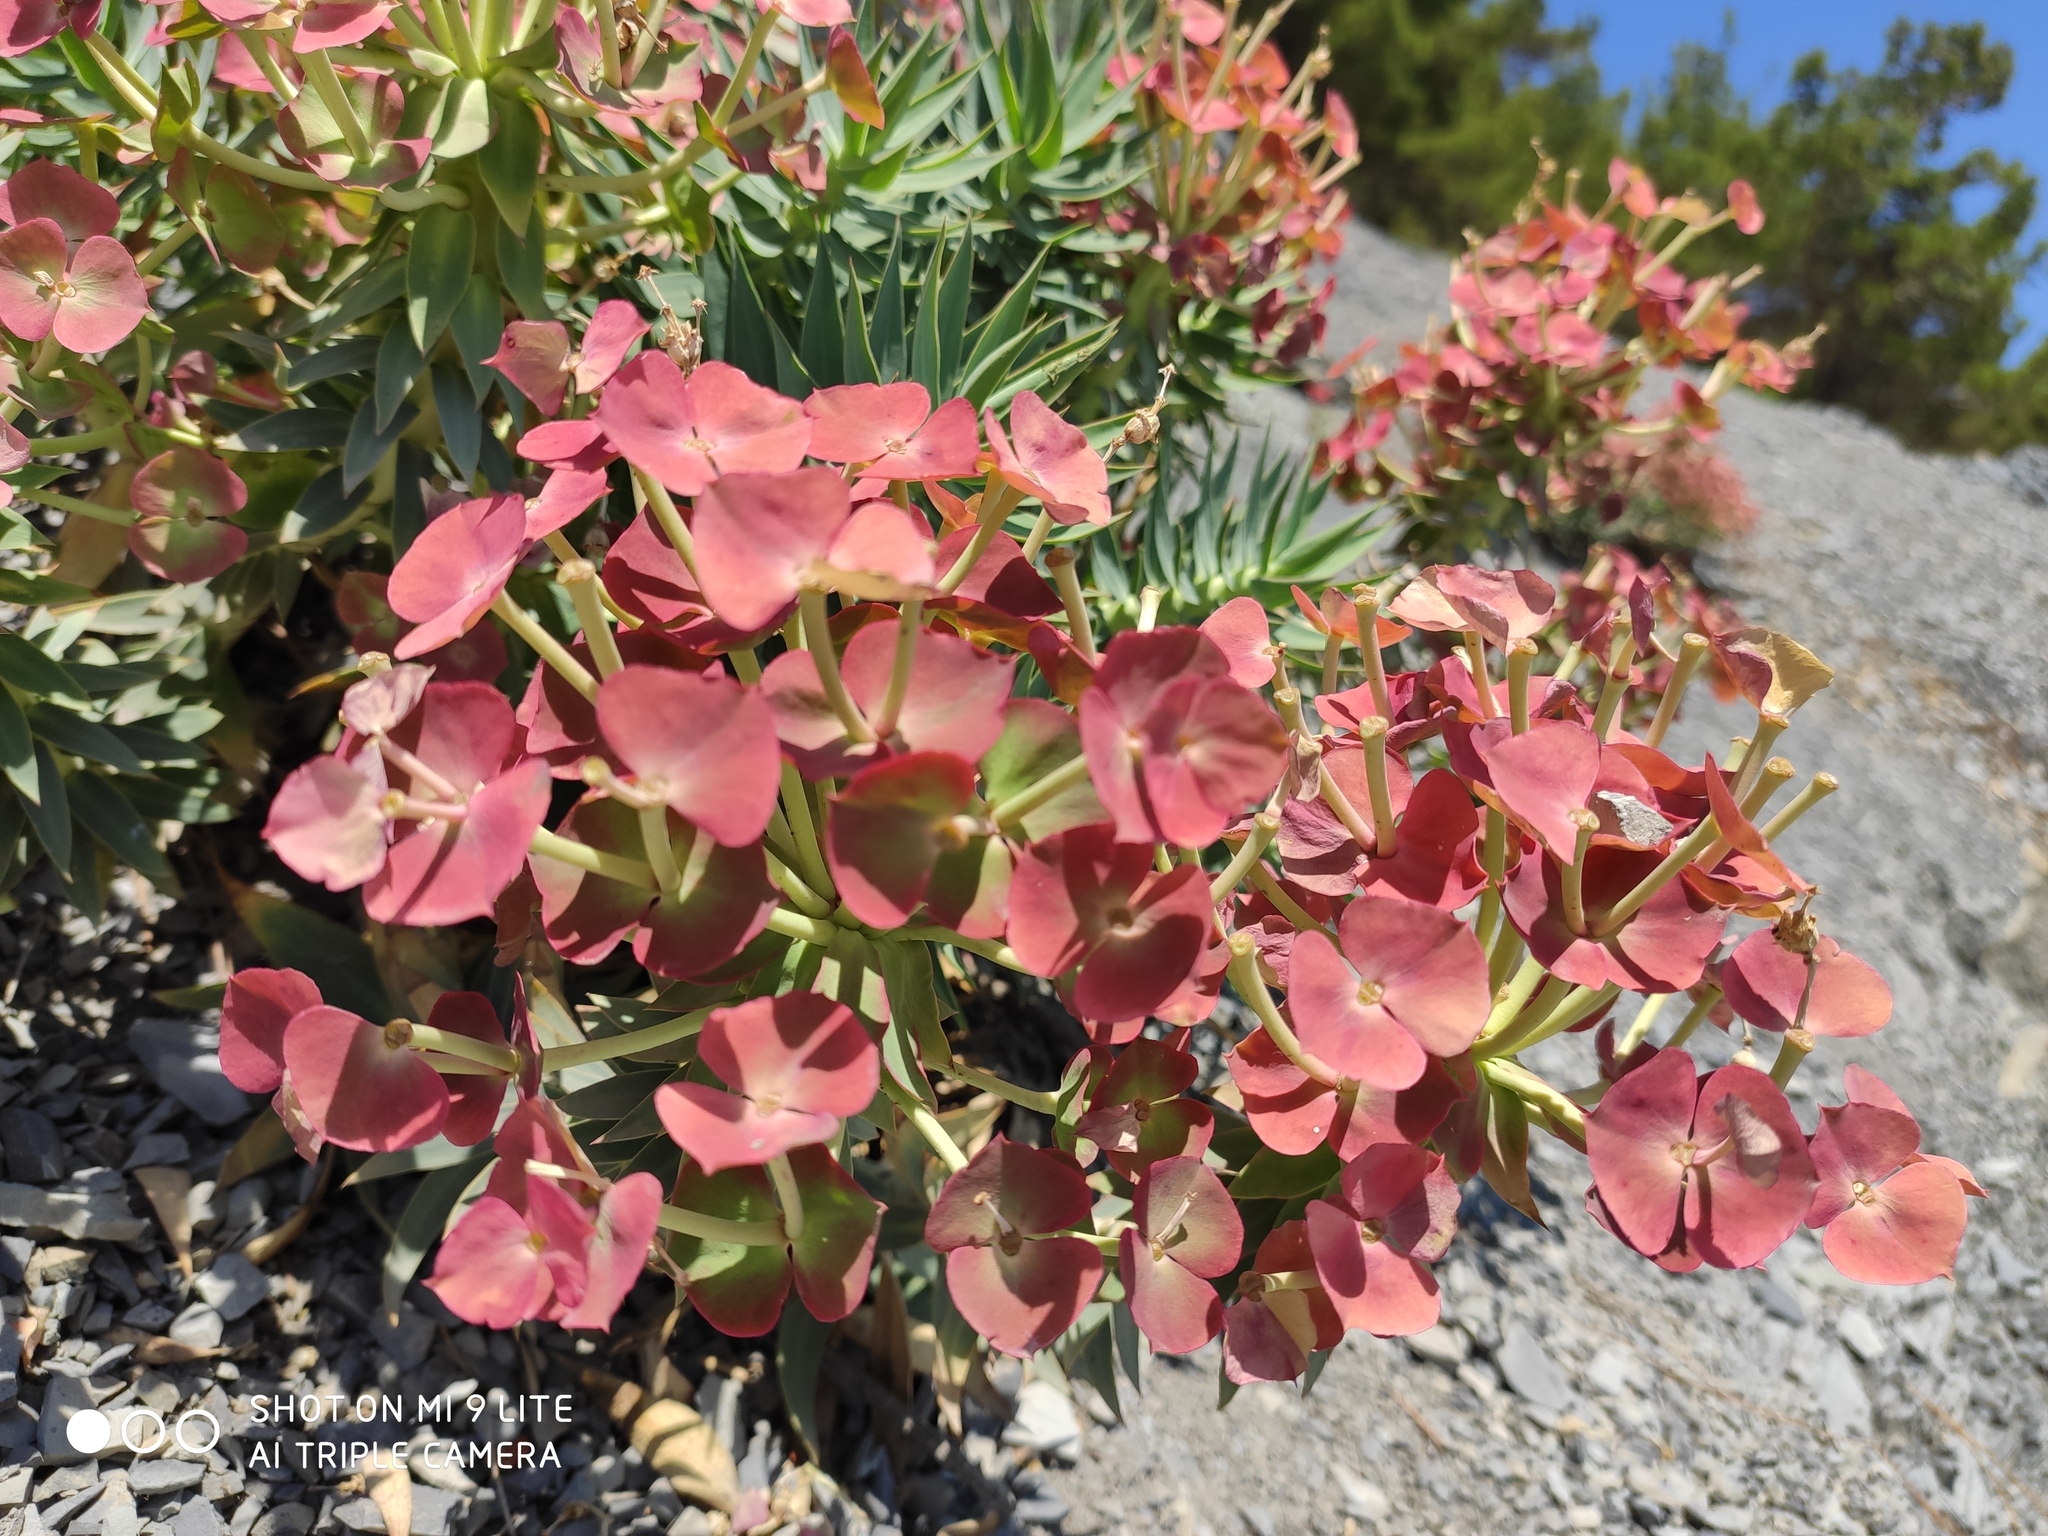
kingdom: Plantae
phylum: Tracheophyta
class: Magnoliopsida
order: Malpighiales
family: Euphorbiaceae
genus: Euphorbia
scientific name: Euphorbia rigida
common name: Upright myrtle spurge
